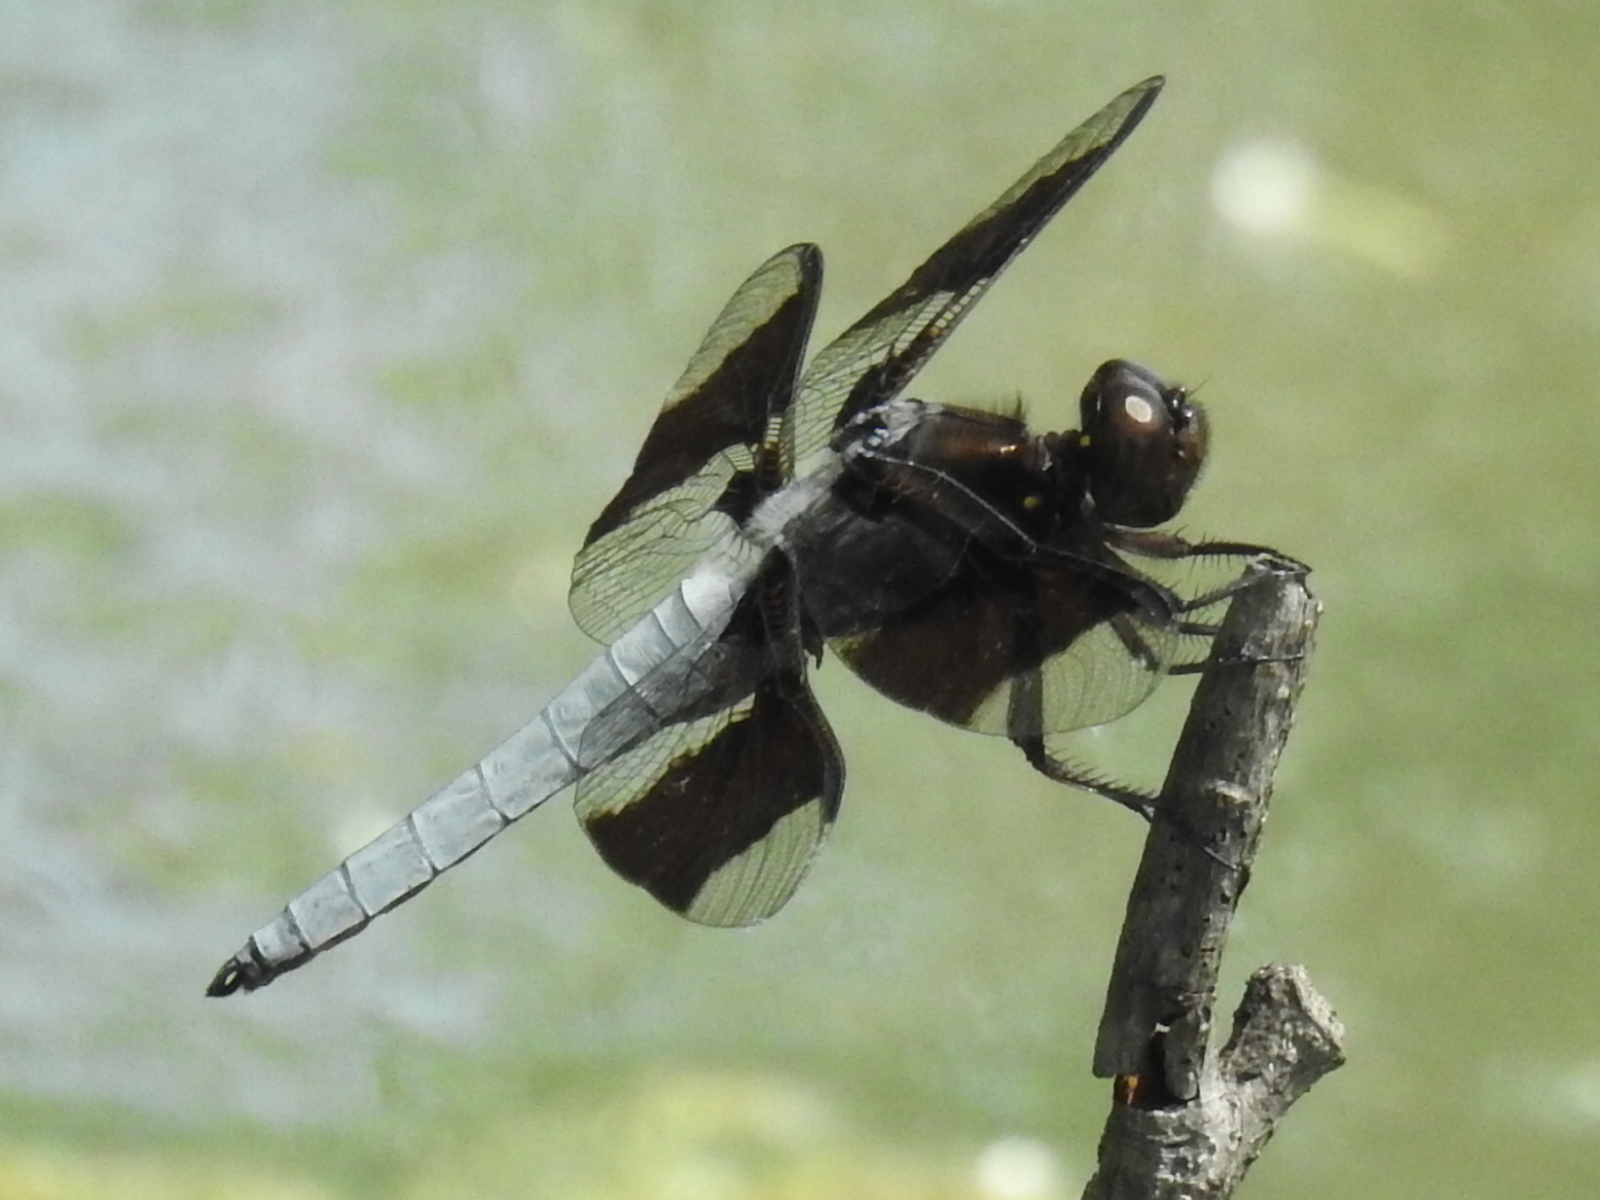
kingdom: Animalia
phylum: Arthropoda
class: Insecta
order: Odonata
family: Libellulidae
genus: Plathemis
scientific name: Plathemis lydia
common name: Common whitetail
